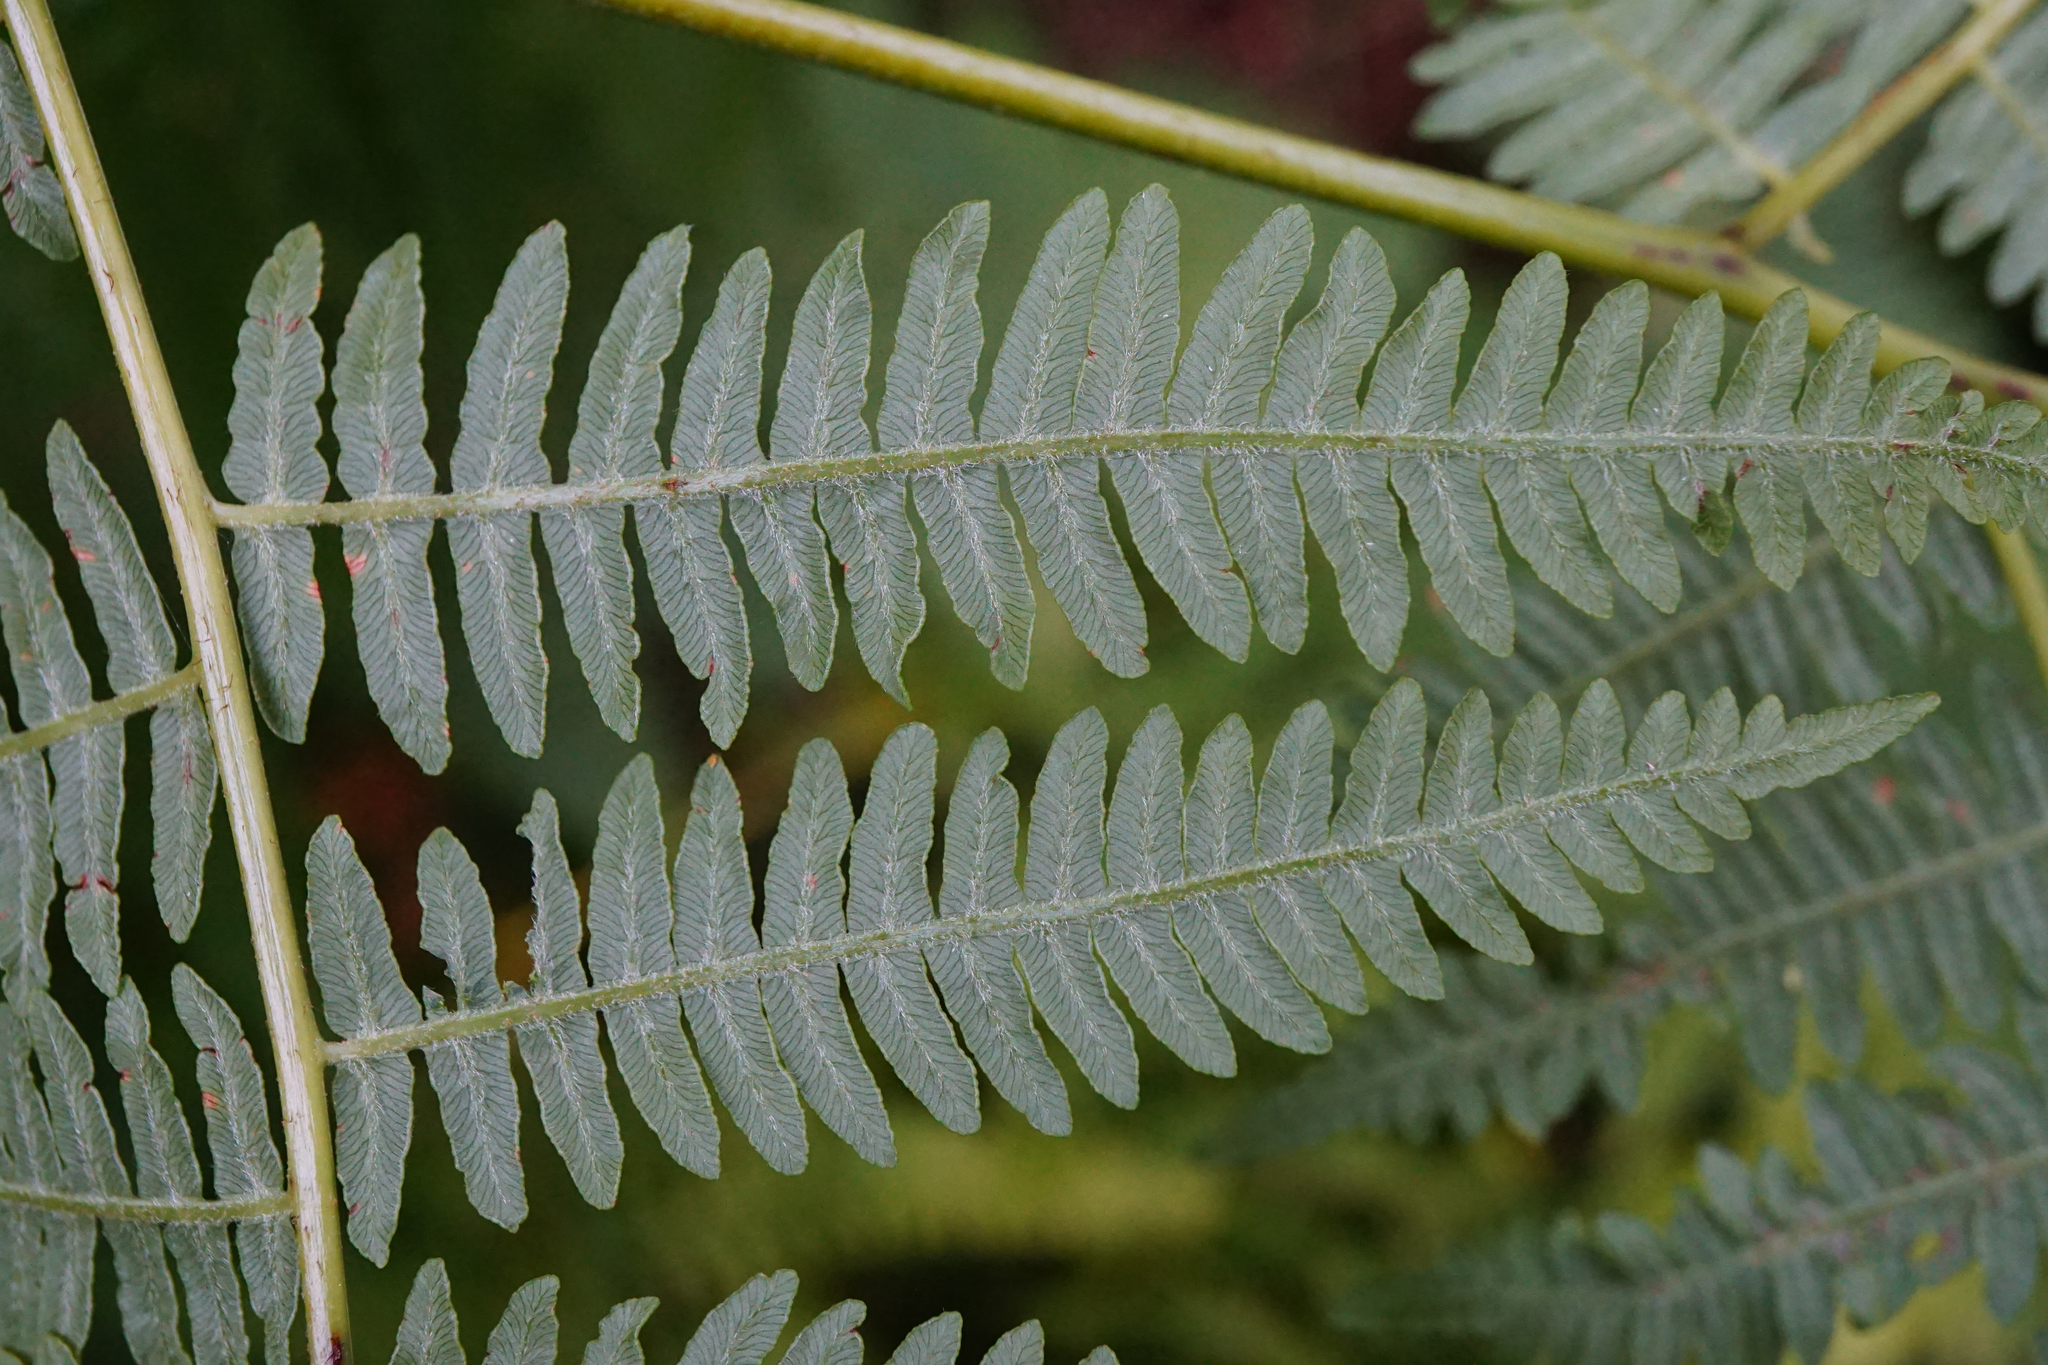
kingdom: Plantae
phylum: Tracheophyta
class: Polypodiopsida
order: Polypodiales
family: Dennstaedtiaceae
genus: Pteridium
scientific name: Pteridium aquilinum
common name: Bracken
